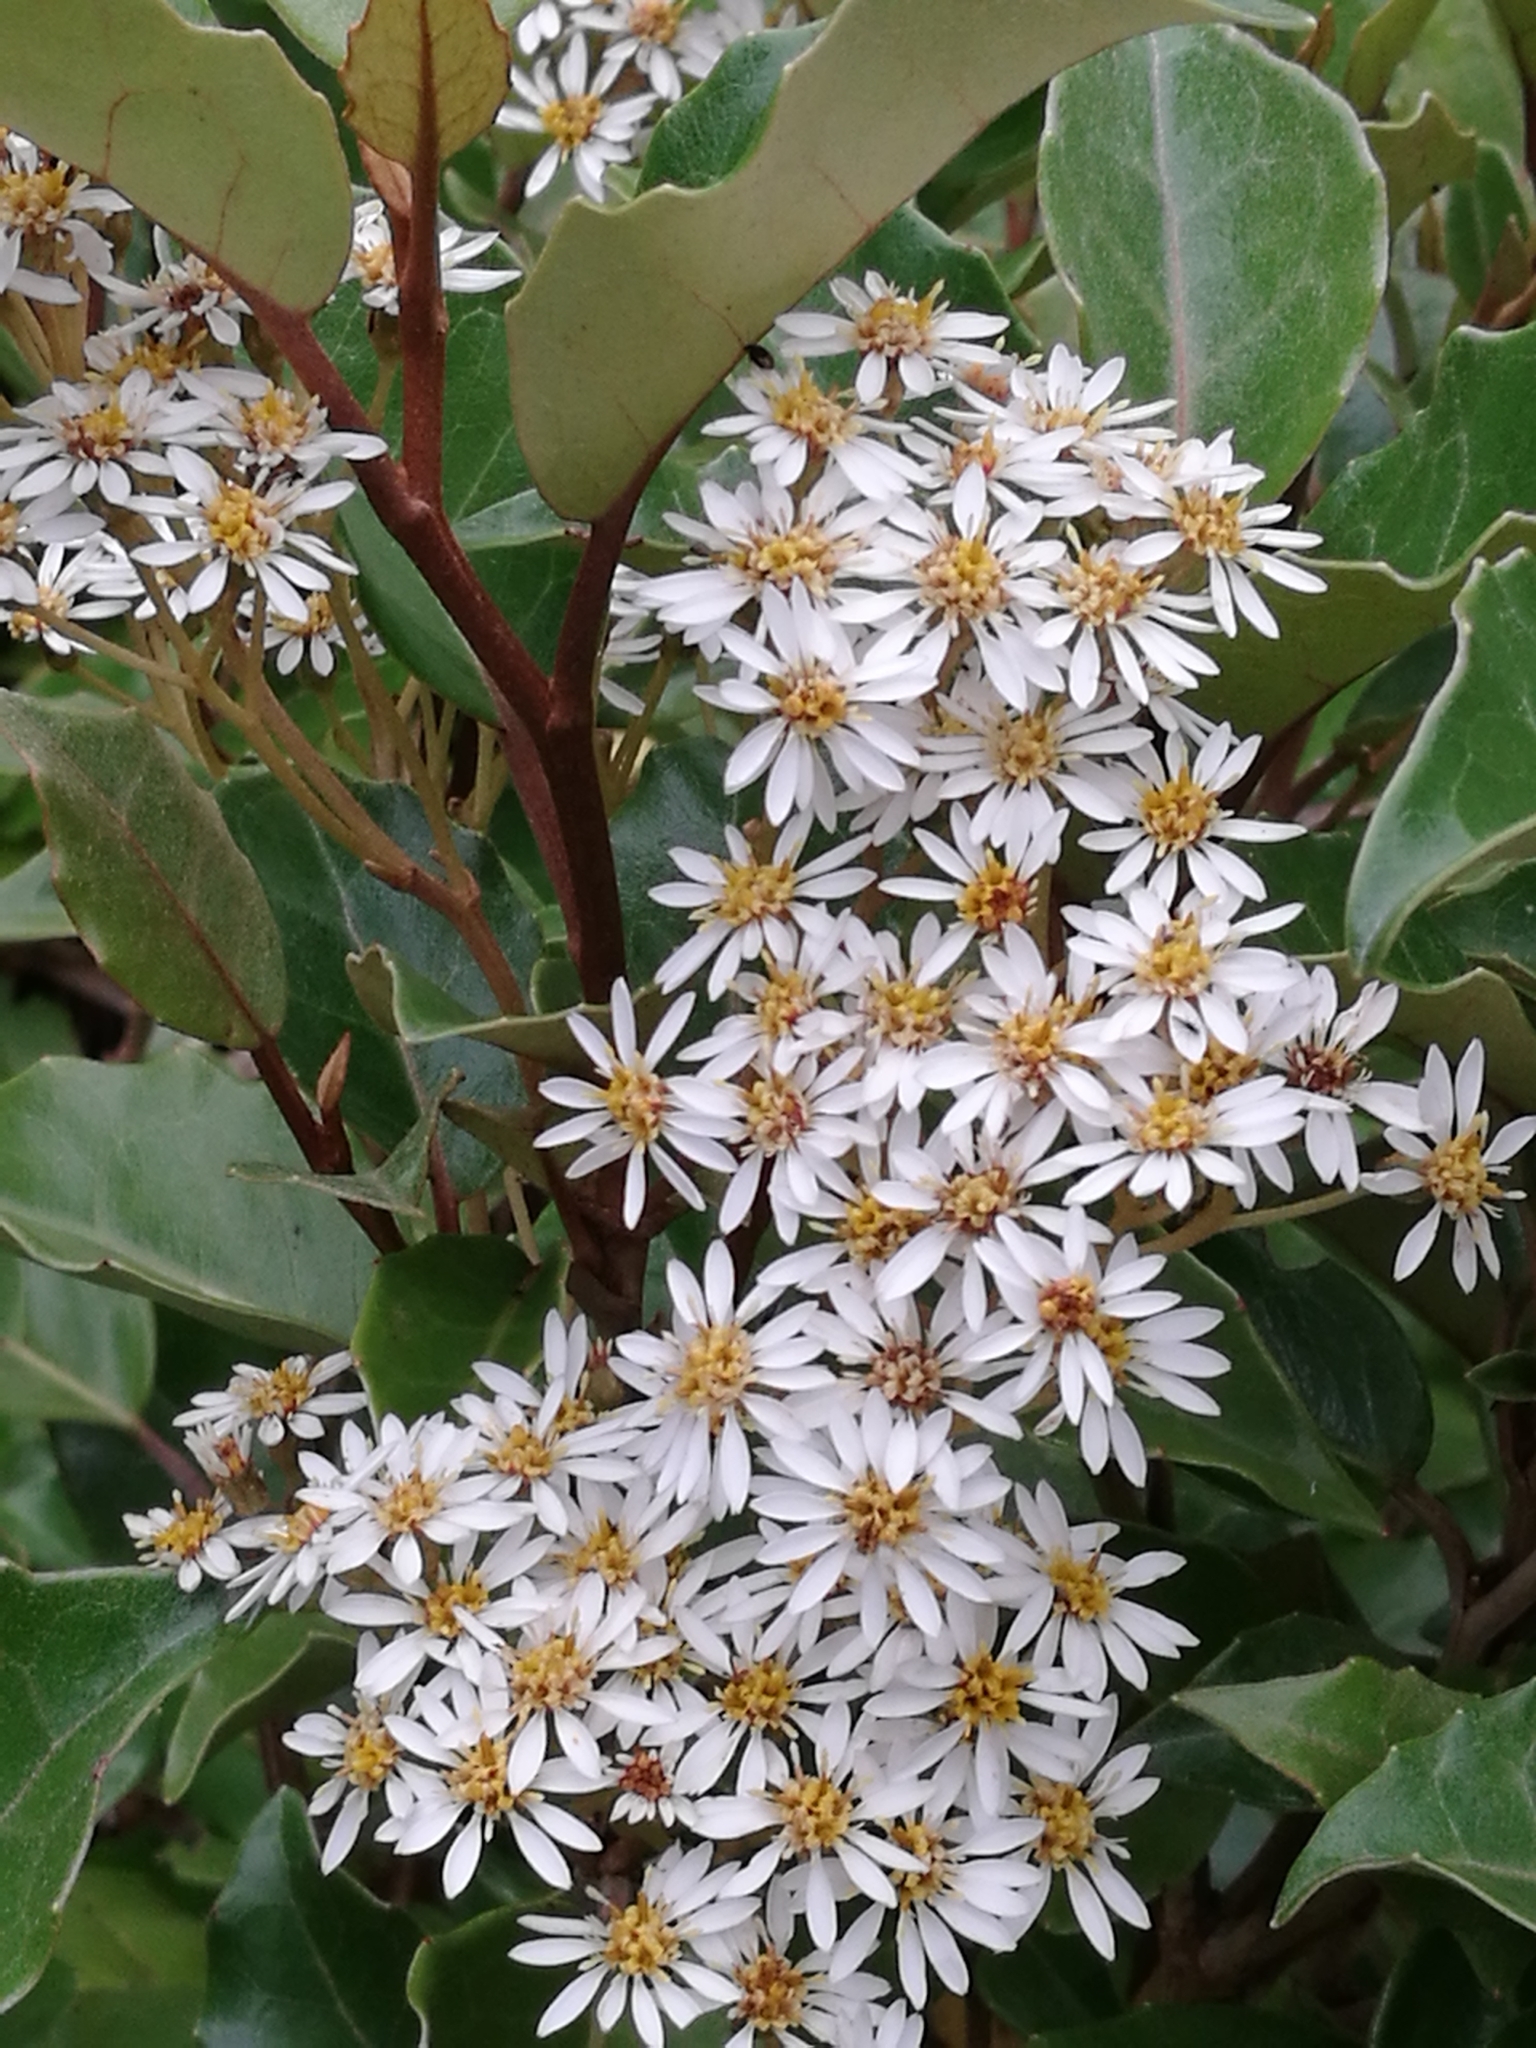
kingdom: Plantae
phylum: Tracheophyta
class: Magnoliopsida
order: Asterales
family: Asteraceae
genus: Olearia
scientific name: Olearia arborescens
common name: Glossy tree daisy
